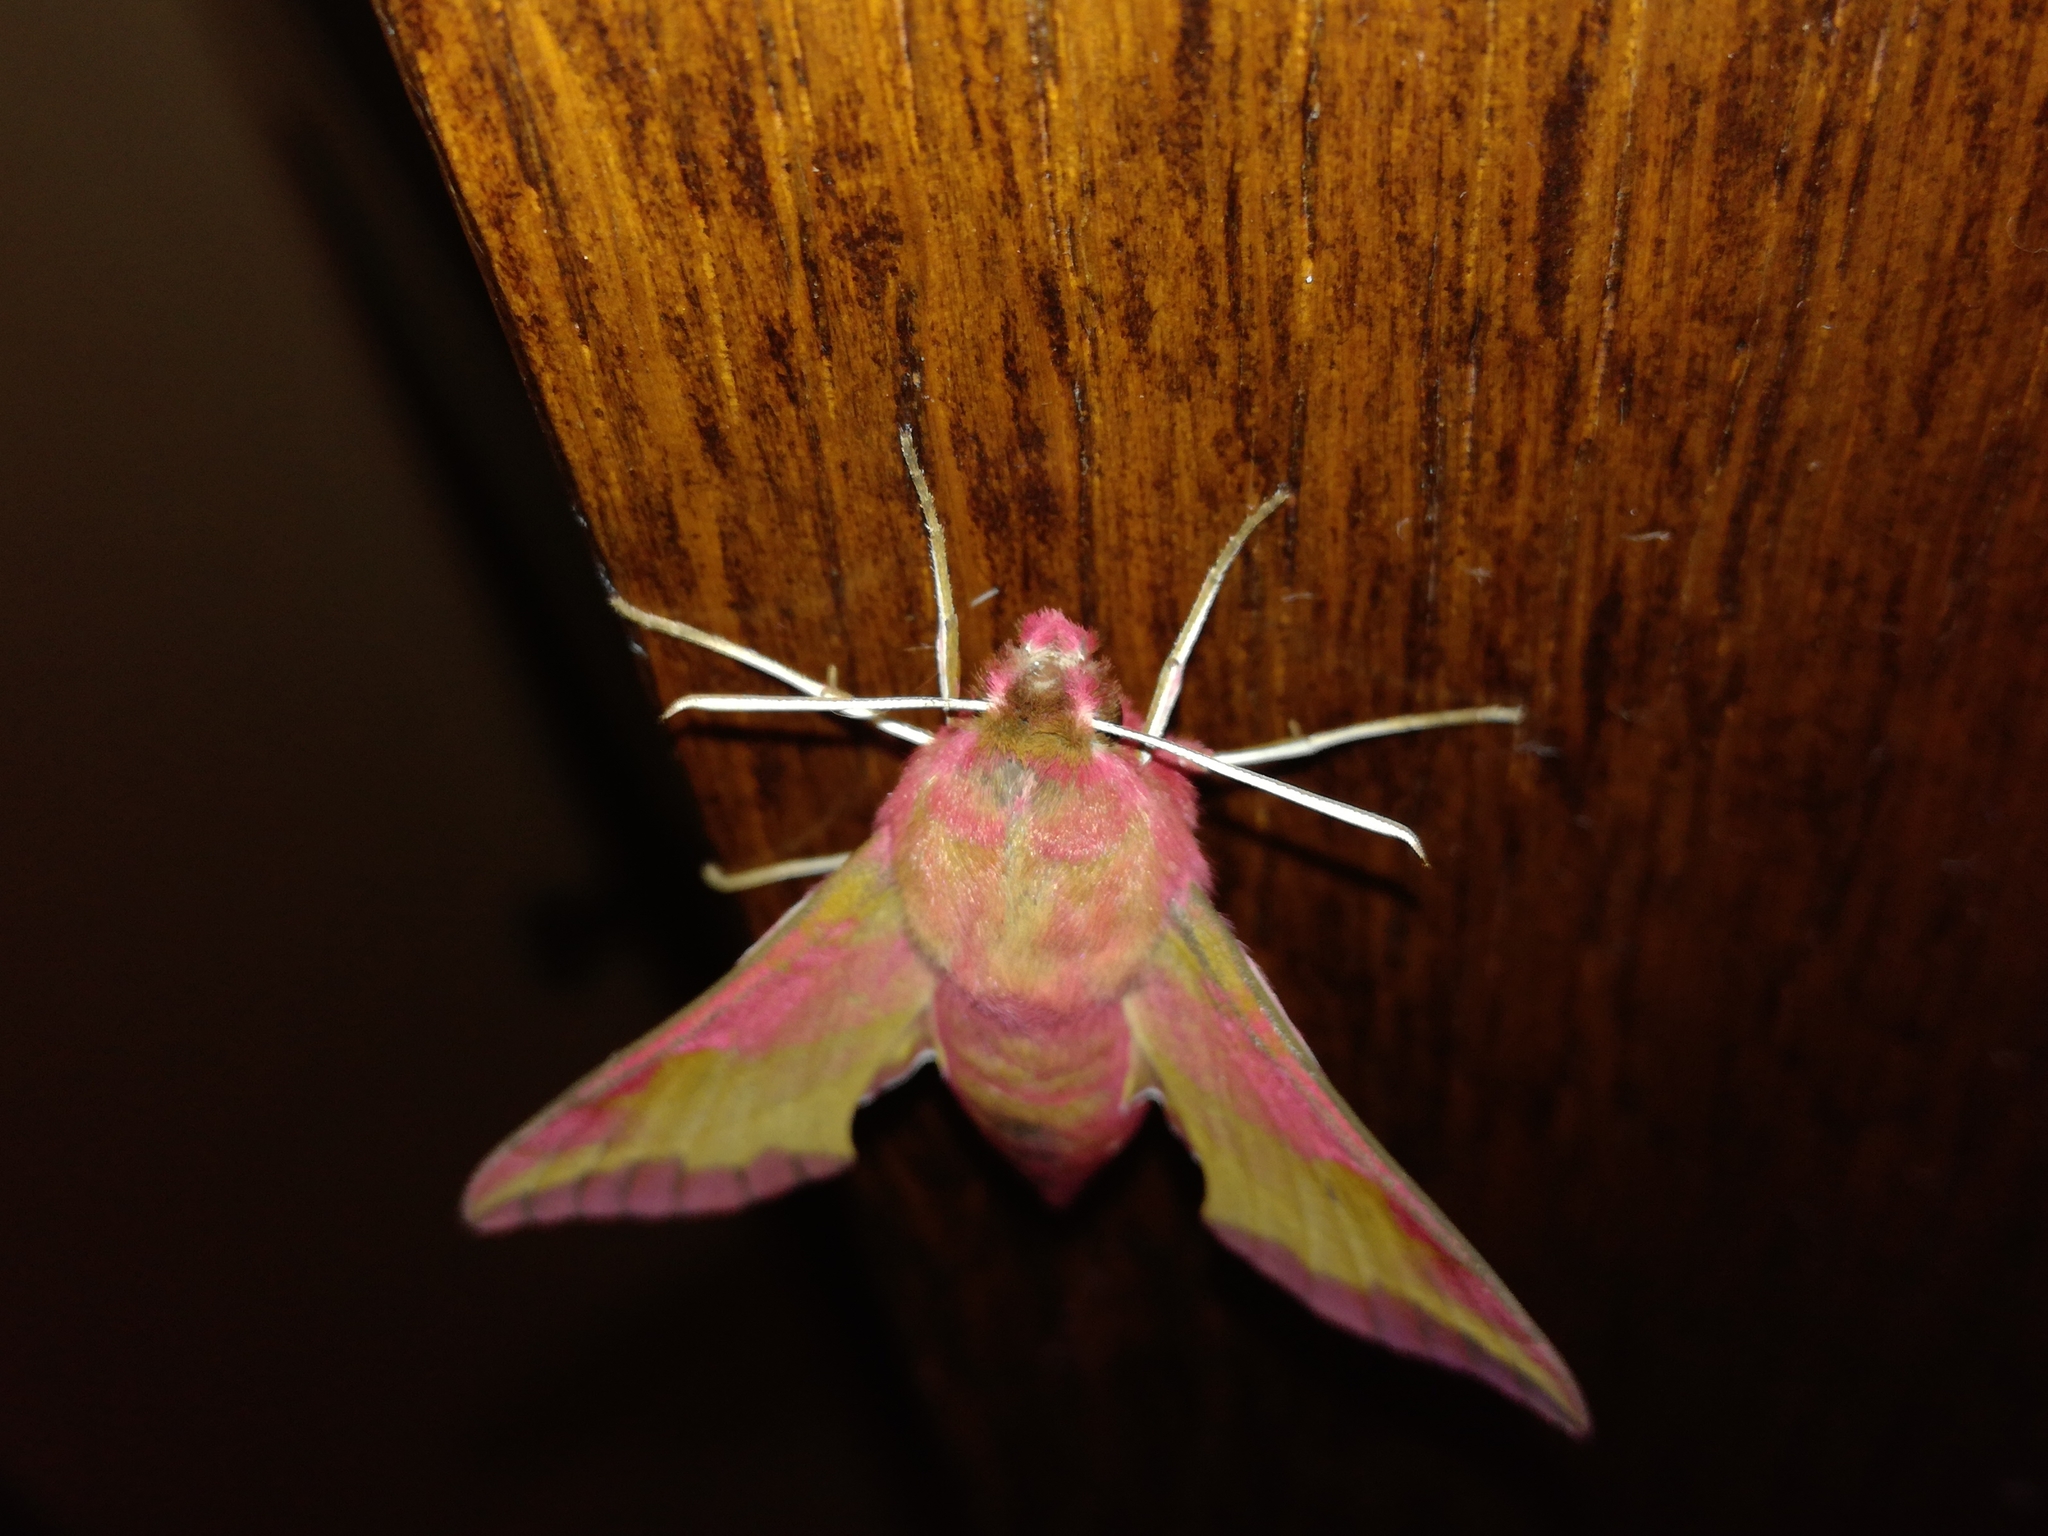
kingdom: Animalia
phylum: Arthropoda
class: Insecta
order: Lepidoptera
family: Sphingidae
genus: Deilephila
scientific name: Deilephila porcellus
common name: Small elephant hawk-moth
